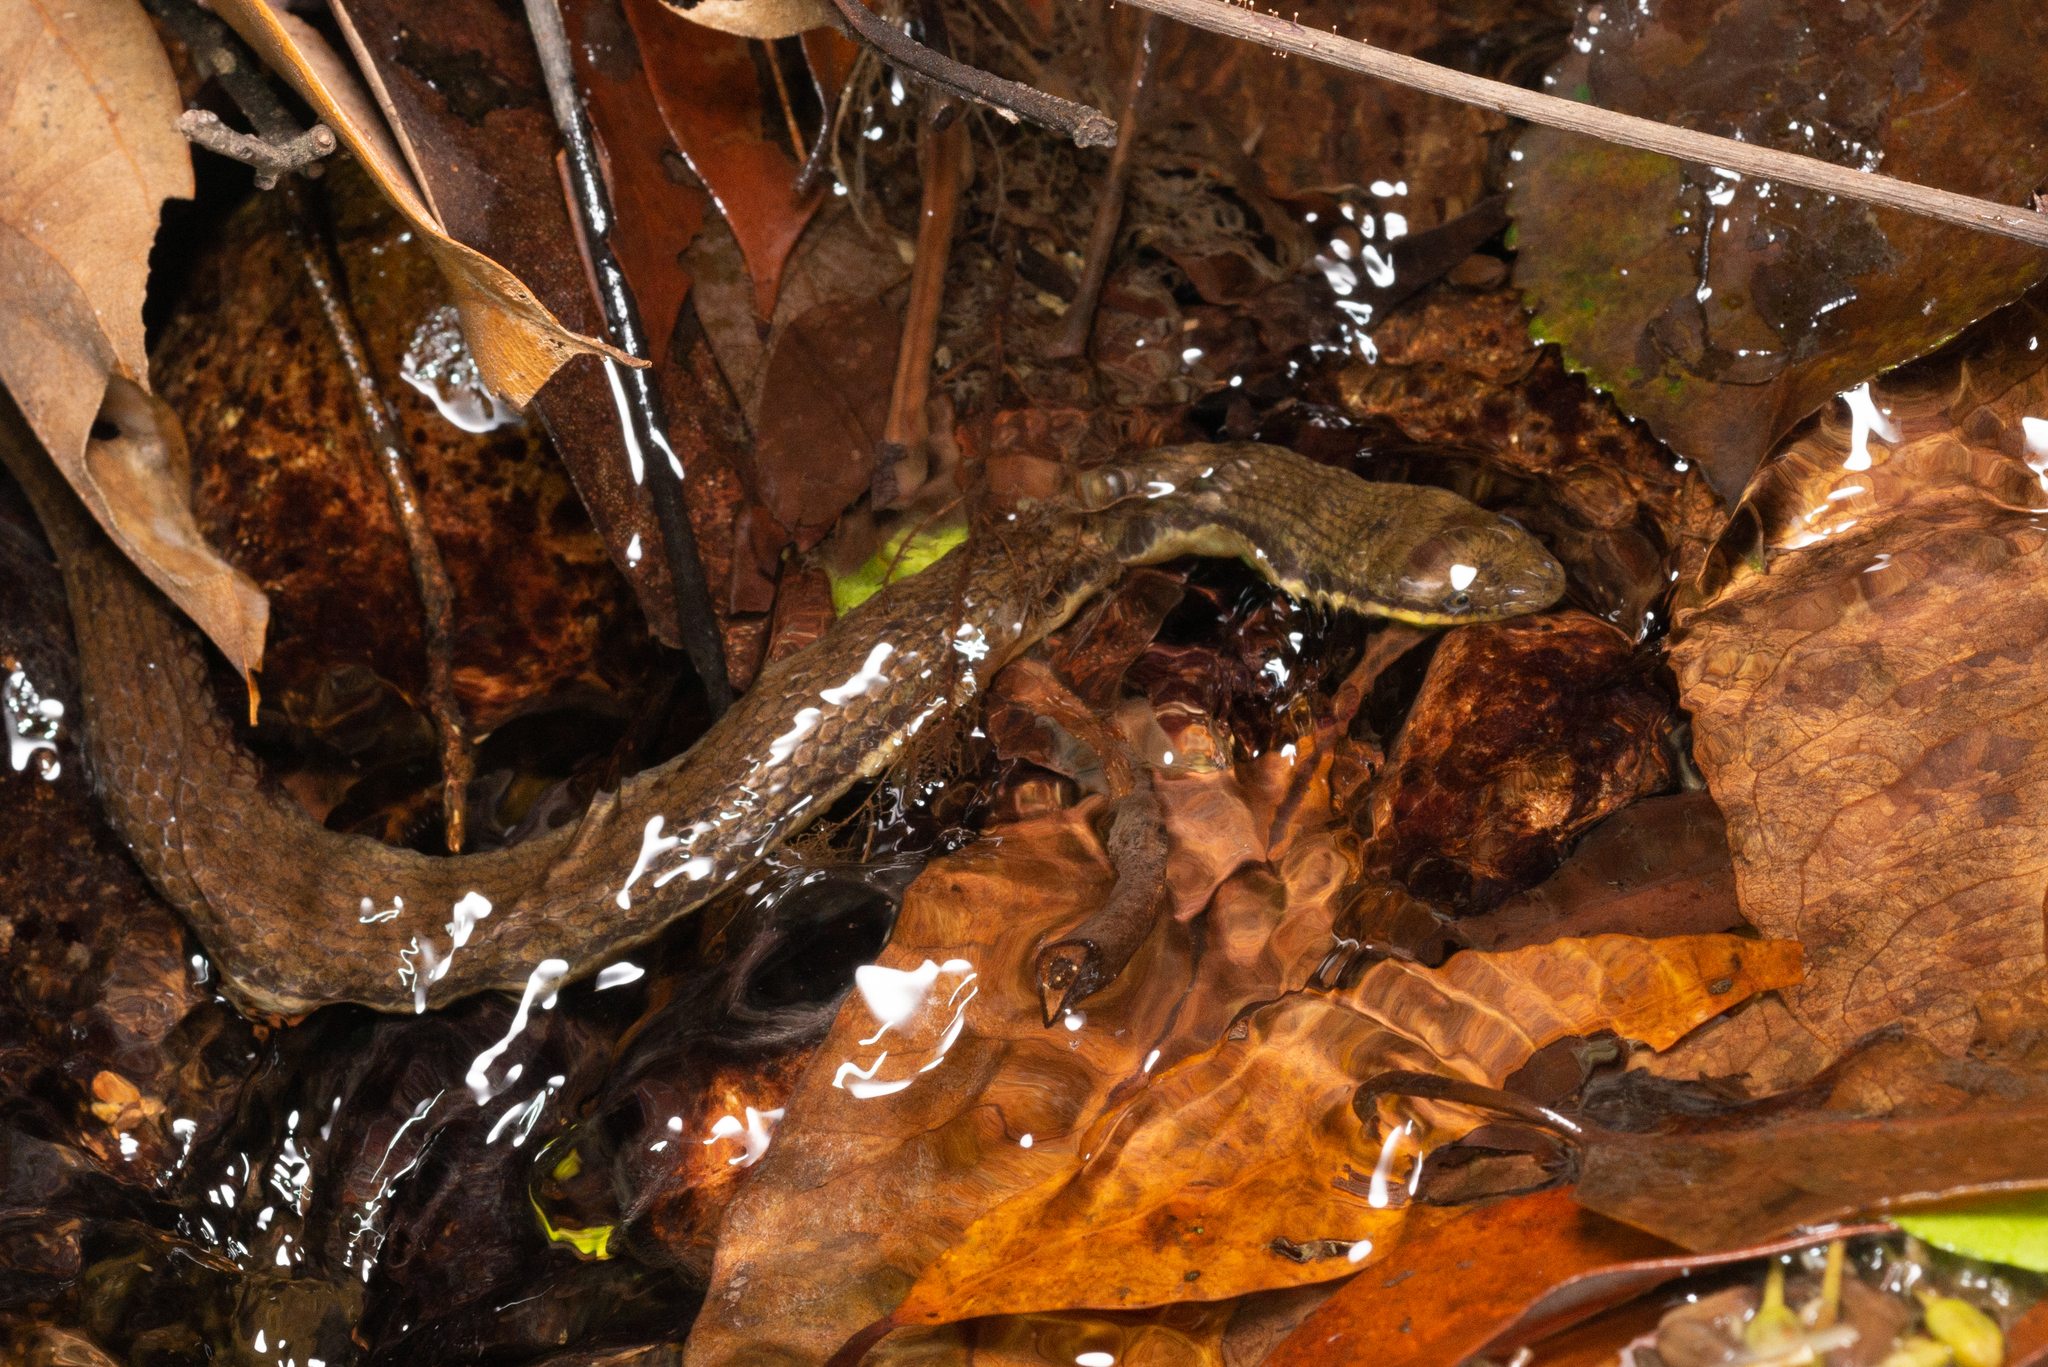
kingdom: Animalia
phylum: Chordata
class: Squamata
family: Colubridae
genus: Opisthotropis
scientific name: Opisthotropis lateralis
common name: Tonkin mountain keelback
